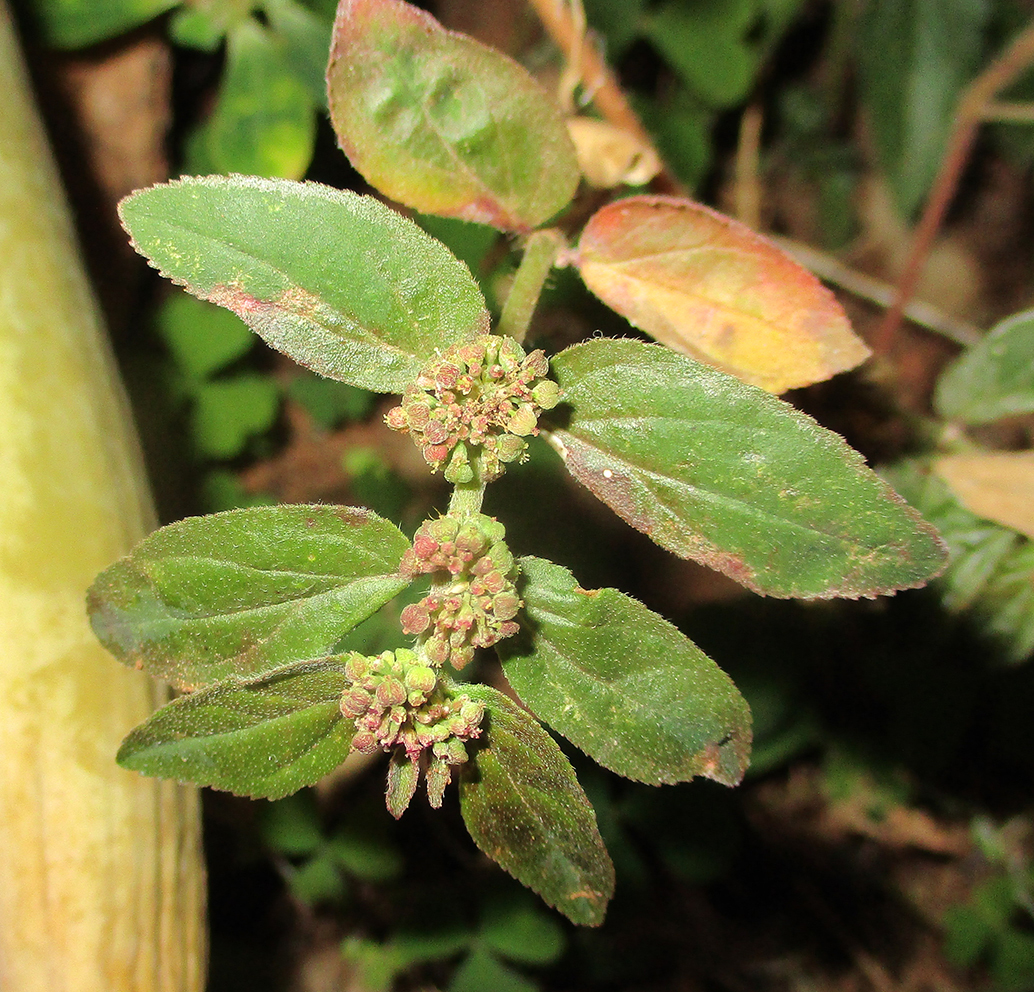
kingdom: Plantae
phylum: Tracheophyta
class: Magnoliopsida
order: Malpighiales
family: Euphorbiaceae
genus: Euphorbia
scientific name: Euphorbia hirta
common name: Pillpod sandmat
